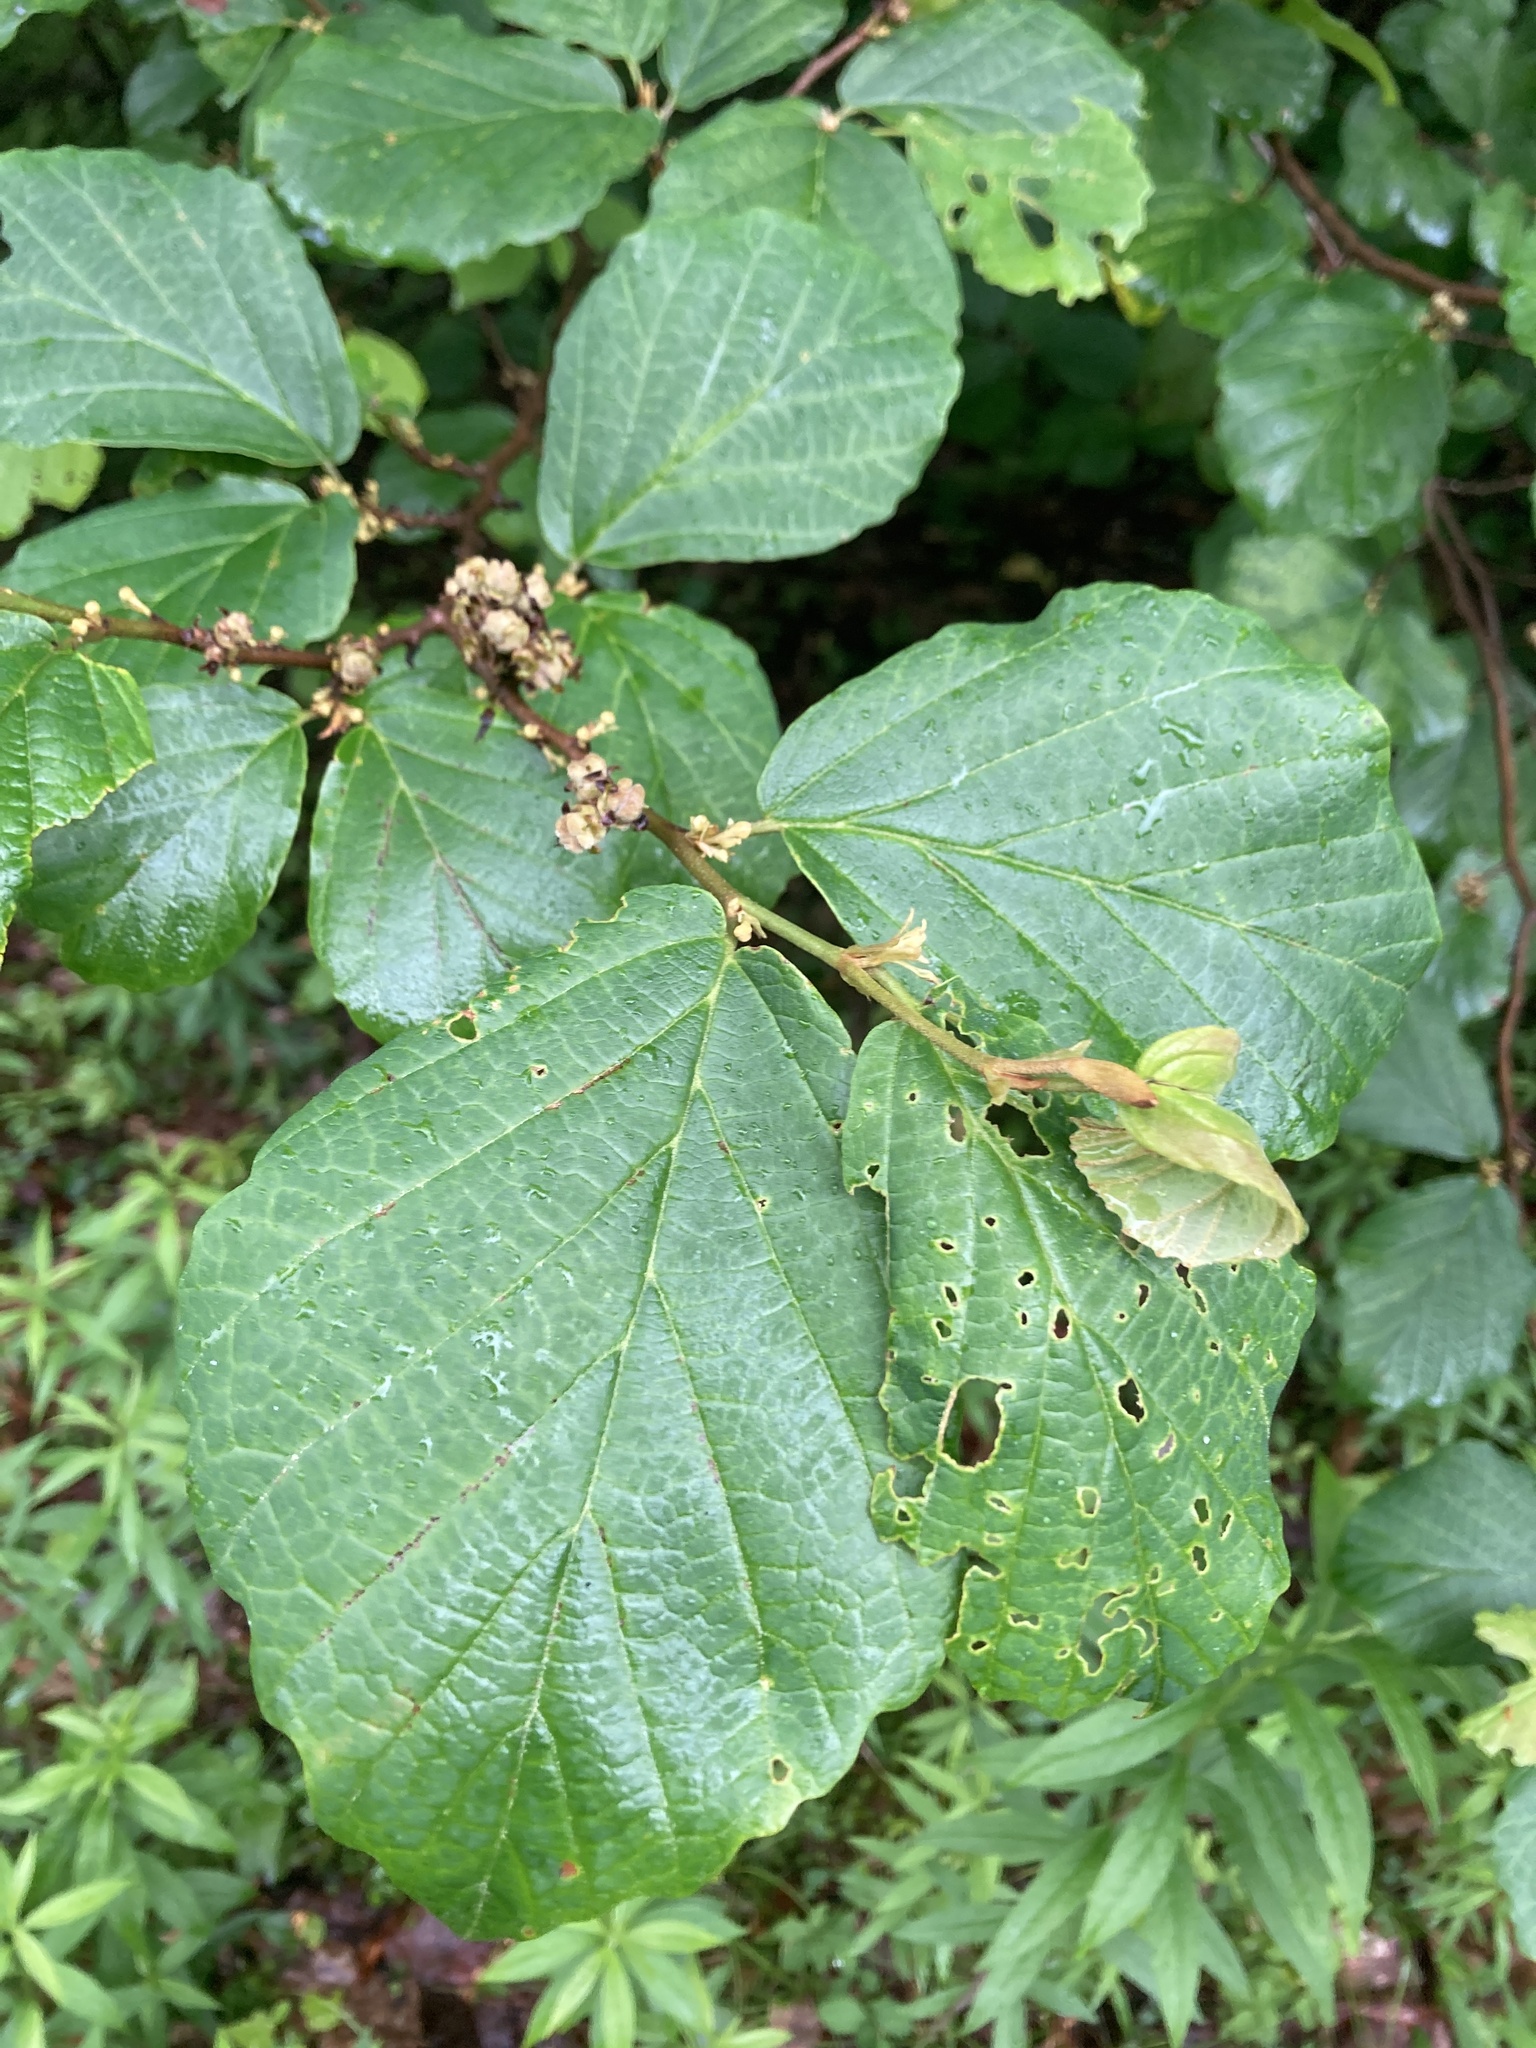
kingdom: Plantae
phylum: Tracheophyta
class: Magnoliopsida
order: Saxifragales
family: Hamamelidaceae
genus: Hamamelis
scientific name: Hamamelis virginiana
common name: Witch-hazel
